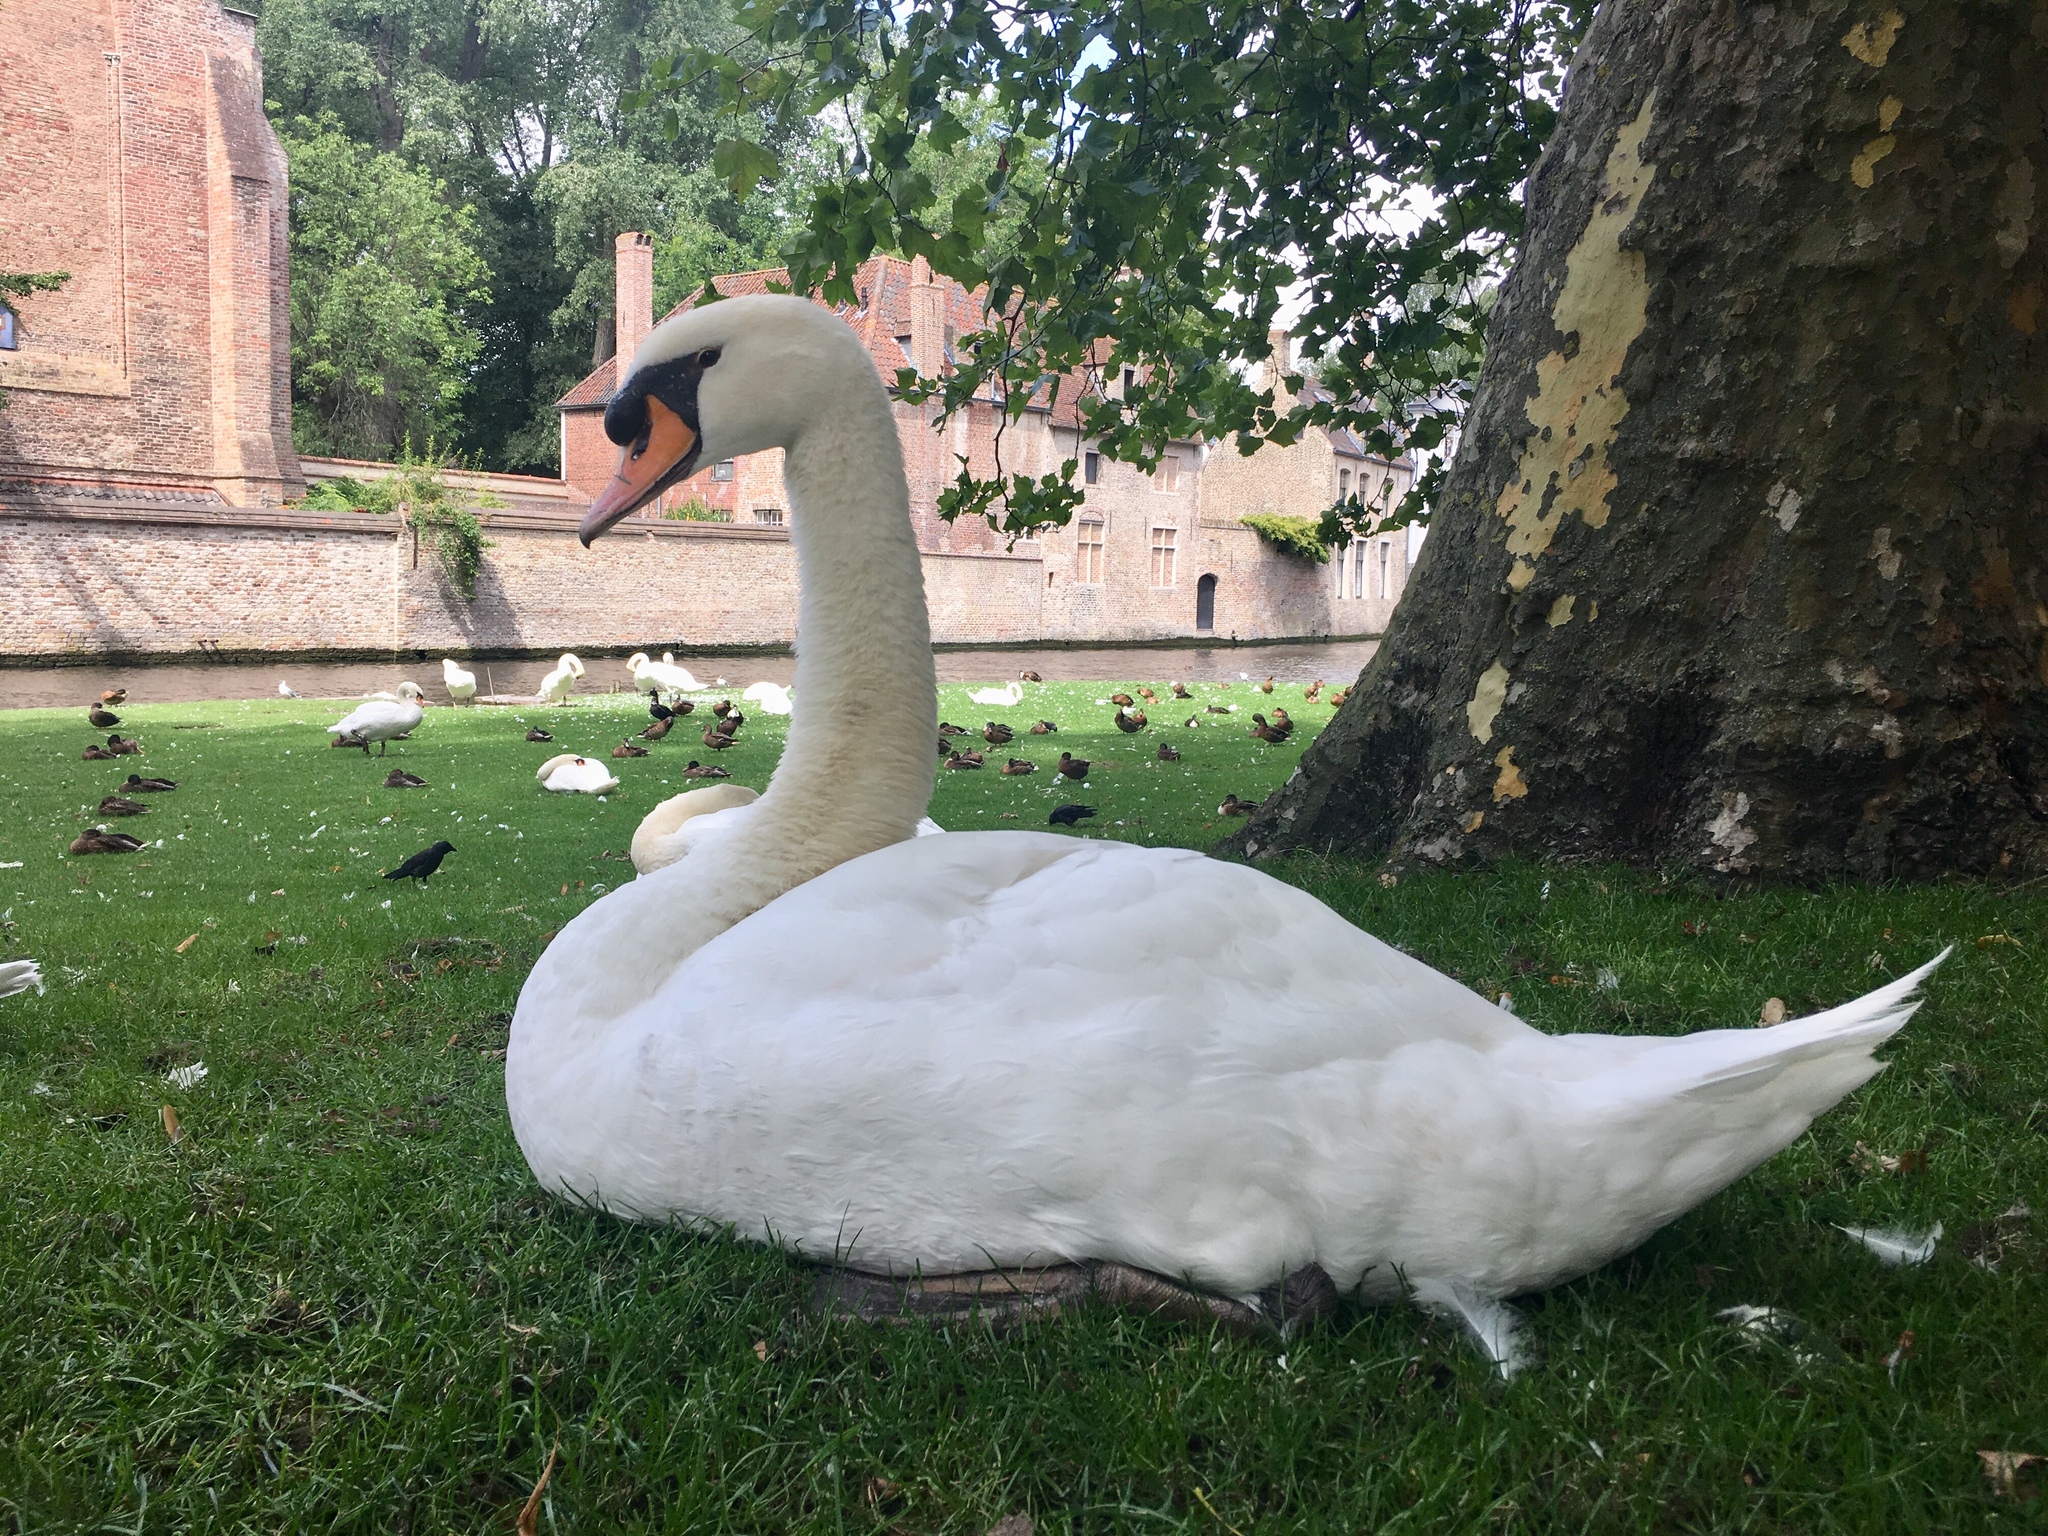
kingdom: Animalia
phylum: Chordata
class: Aves
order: Anseriformes
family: Anatidae
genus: Cygnus
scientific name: Cygnus olor
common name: Mute swan
